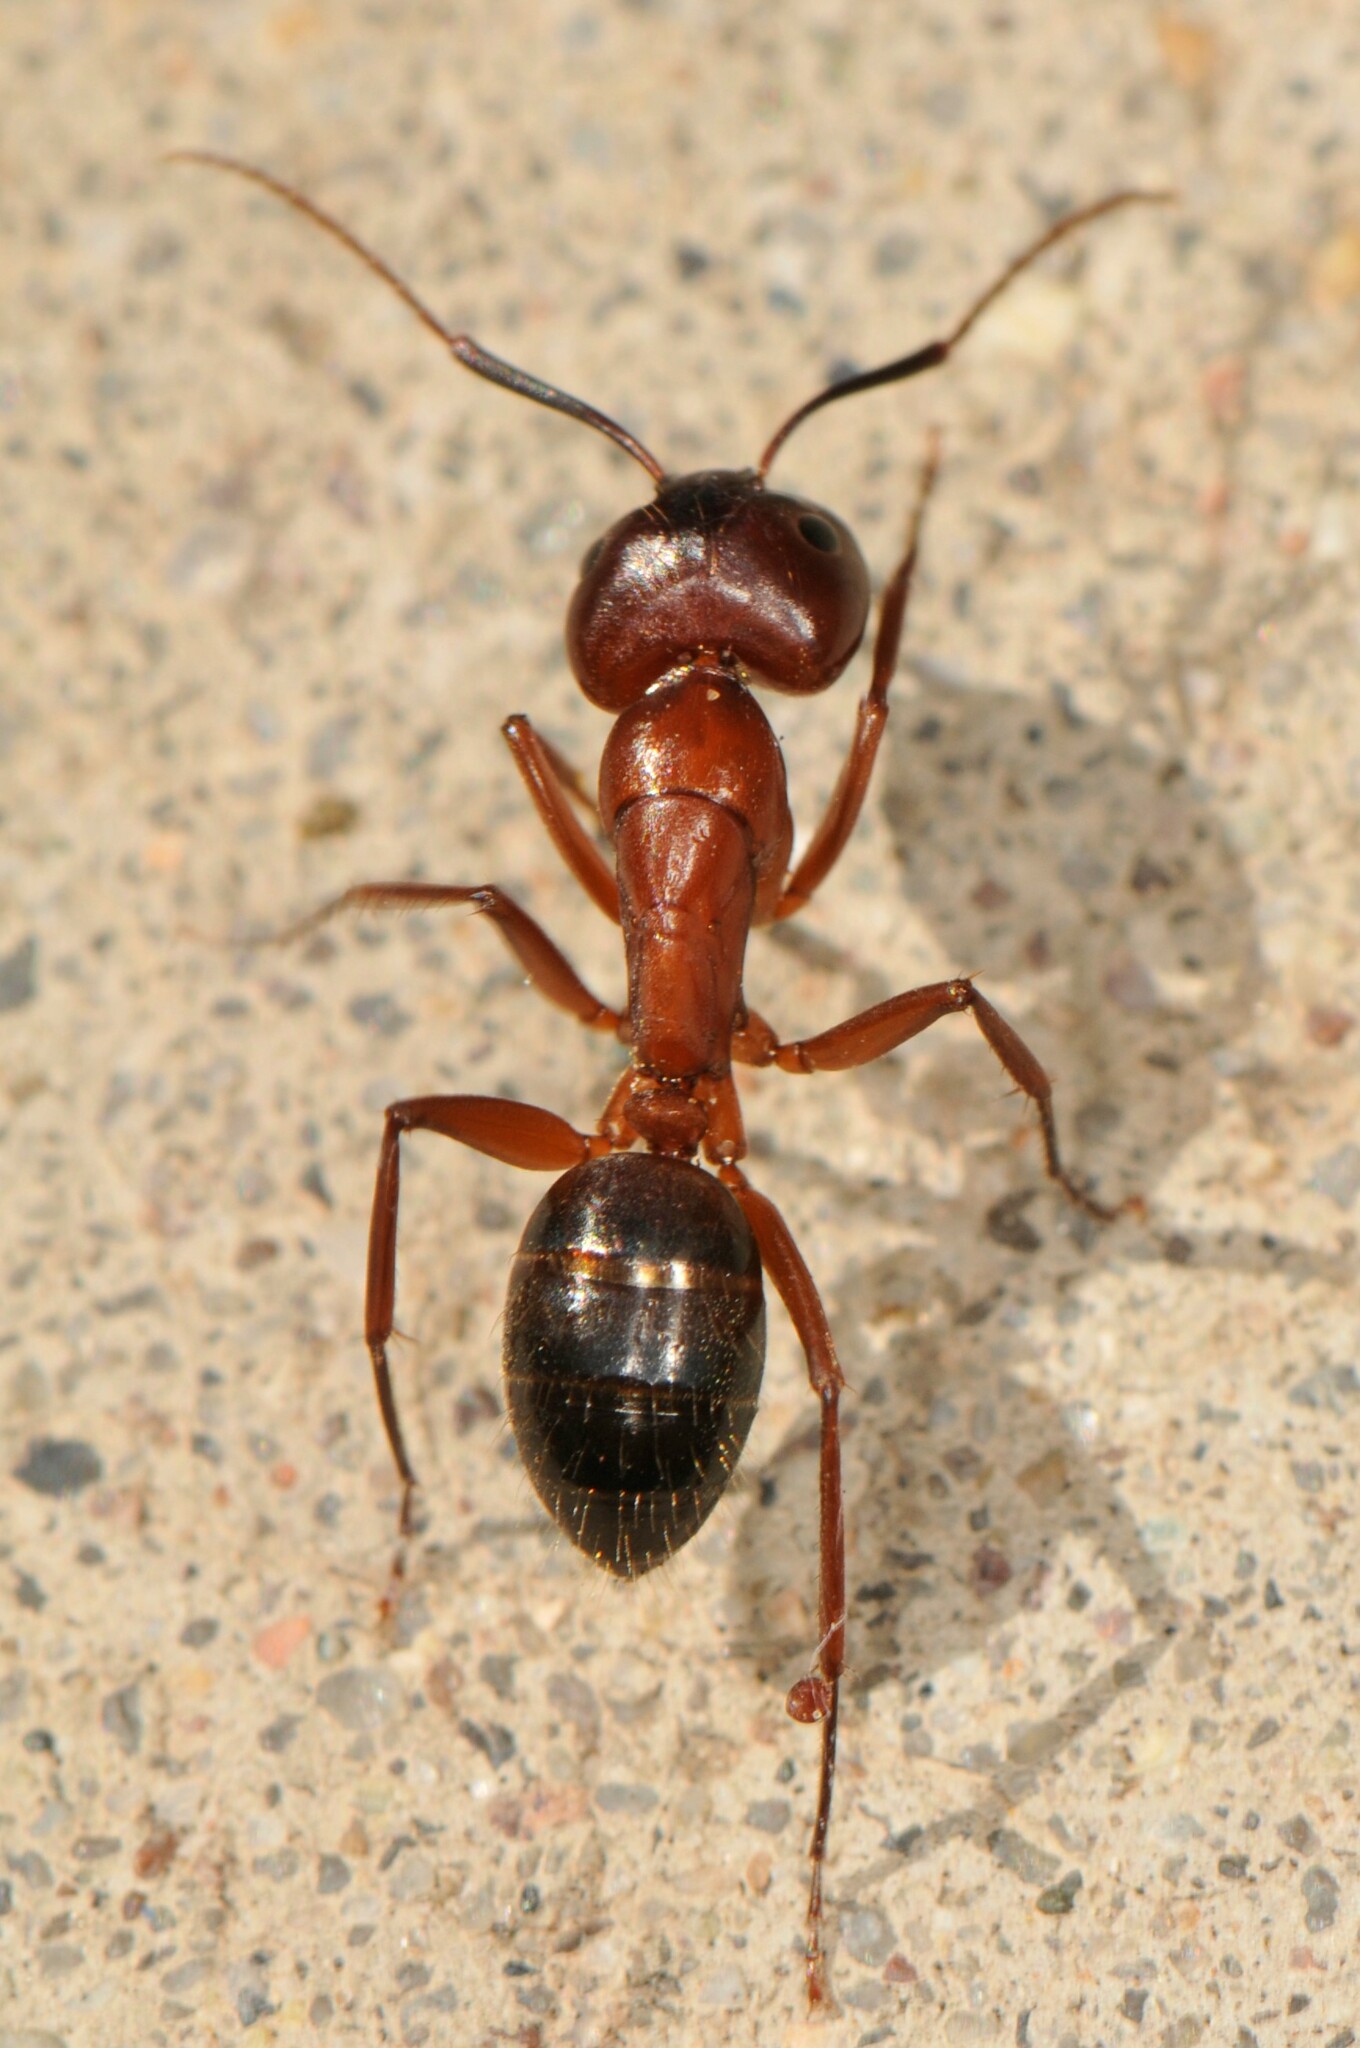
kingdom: Animalia
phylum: Arthropoda
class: Insecta
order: Hymenoptera
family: Formicidae
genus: Camponotus
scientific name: Camponotus
